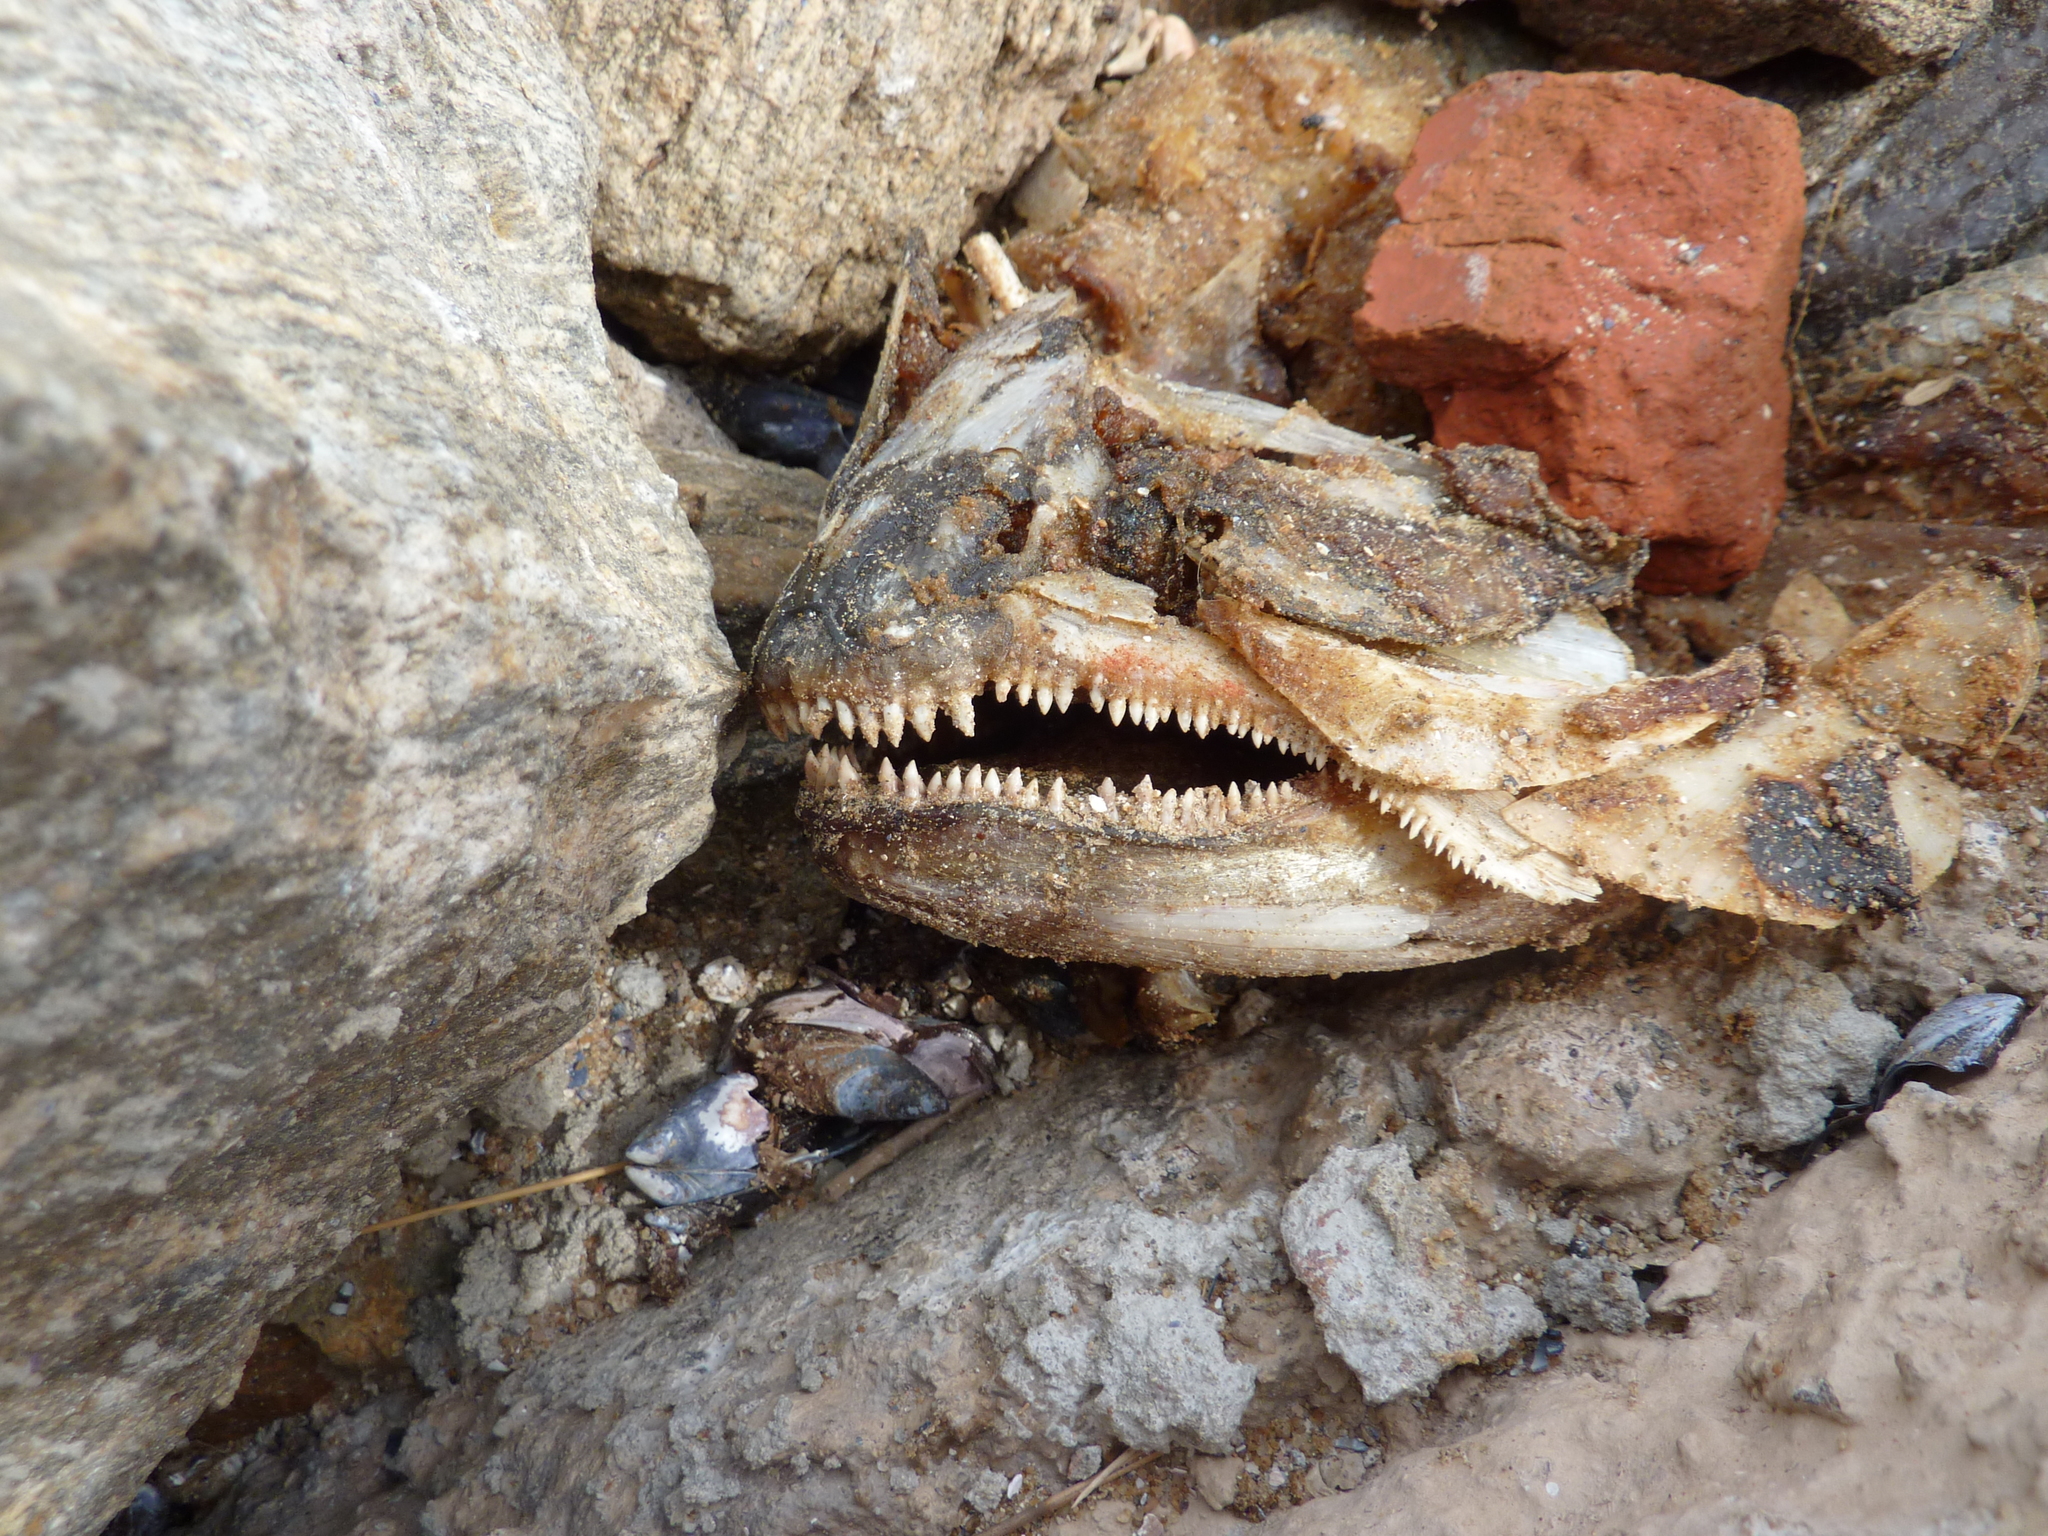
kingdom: Animalia
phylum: Chordata
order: Characiformes
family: Bryconidae
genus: Salminus
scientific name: Salminus brasiliensis
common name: Dorado
